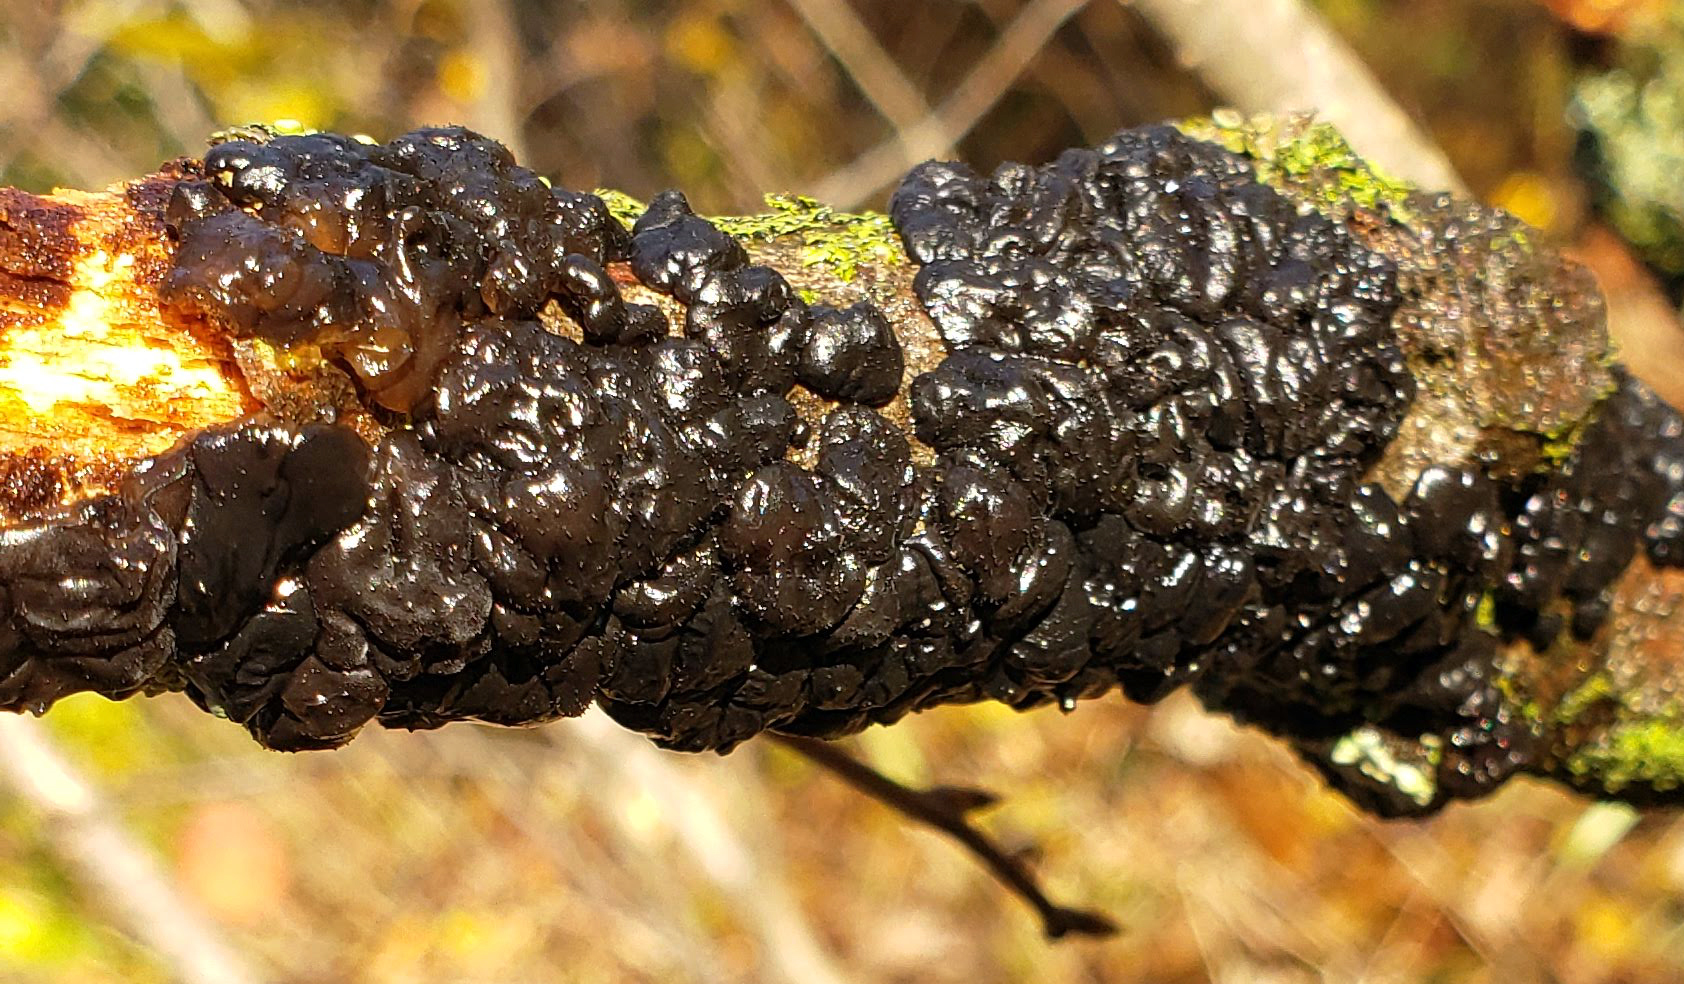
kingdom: Fungi
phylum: Basidiomycota
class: Agaricomycetes
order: Auriculariales
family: Auriculariaceae
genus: Exidia
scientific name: Exidia glandulosa
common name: Witches' butter
